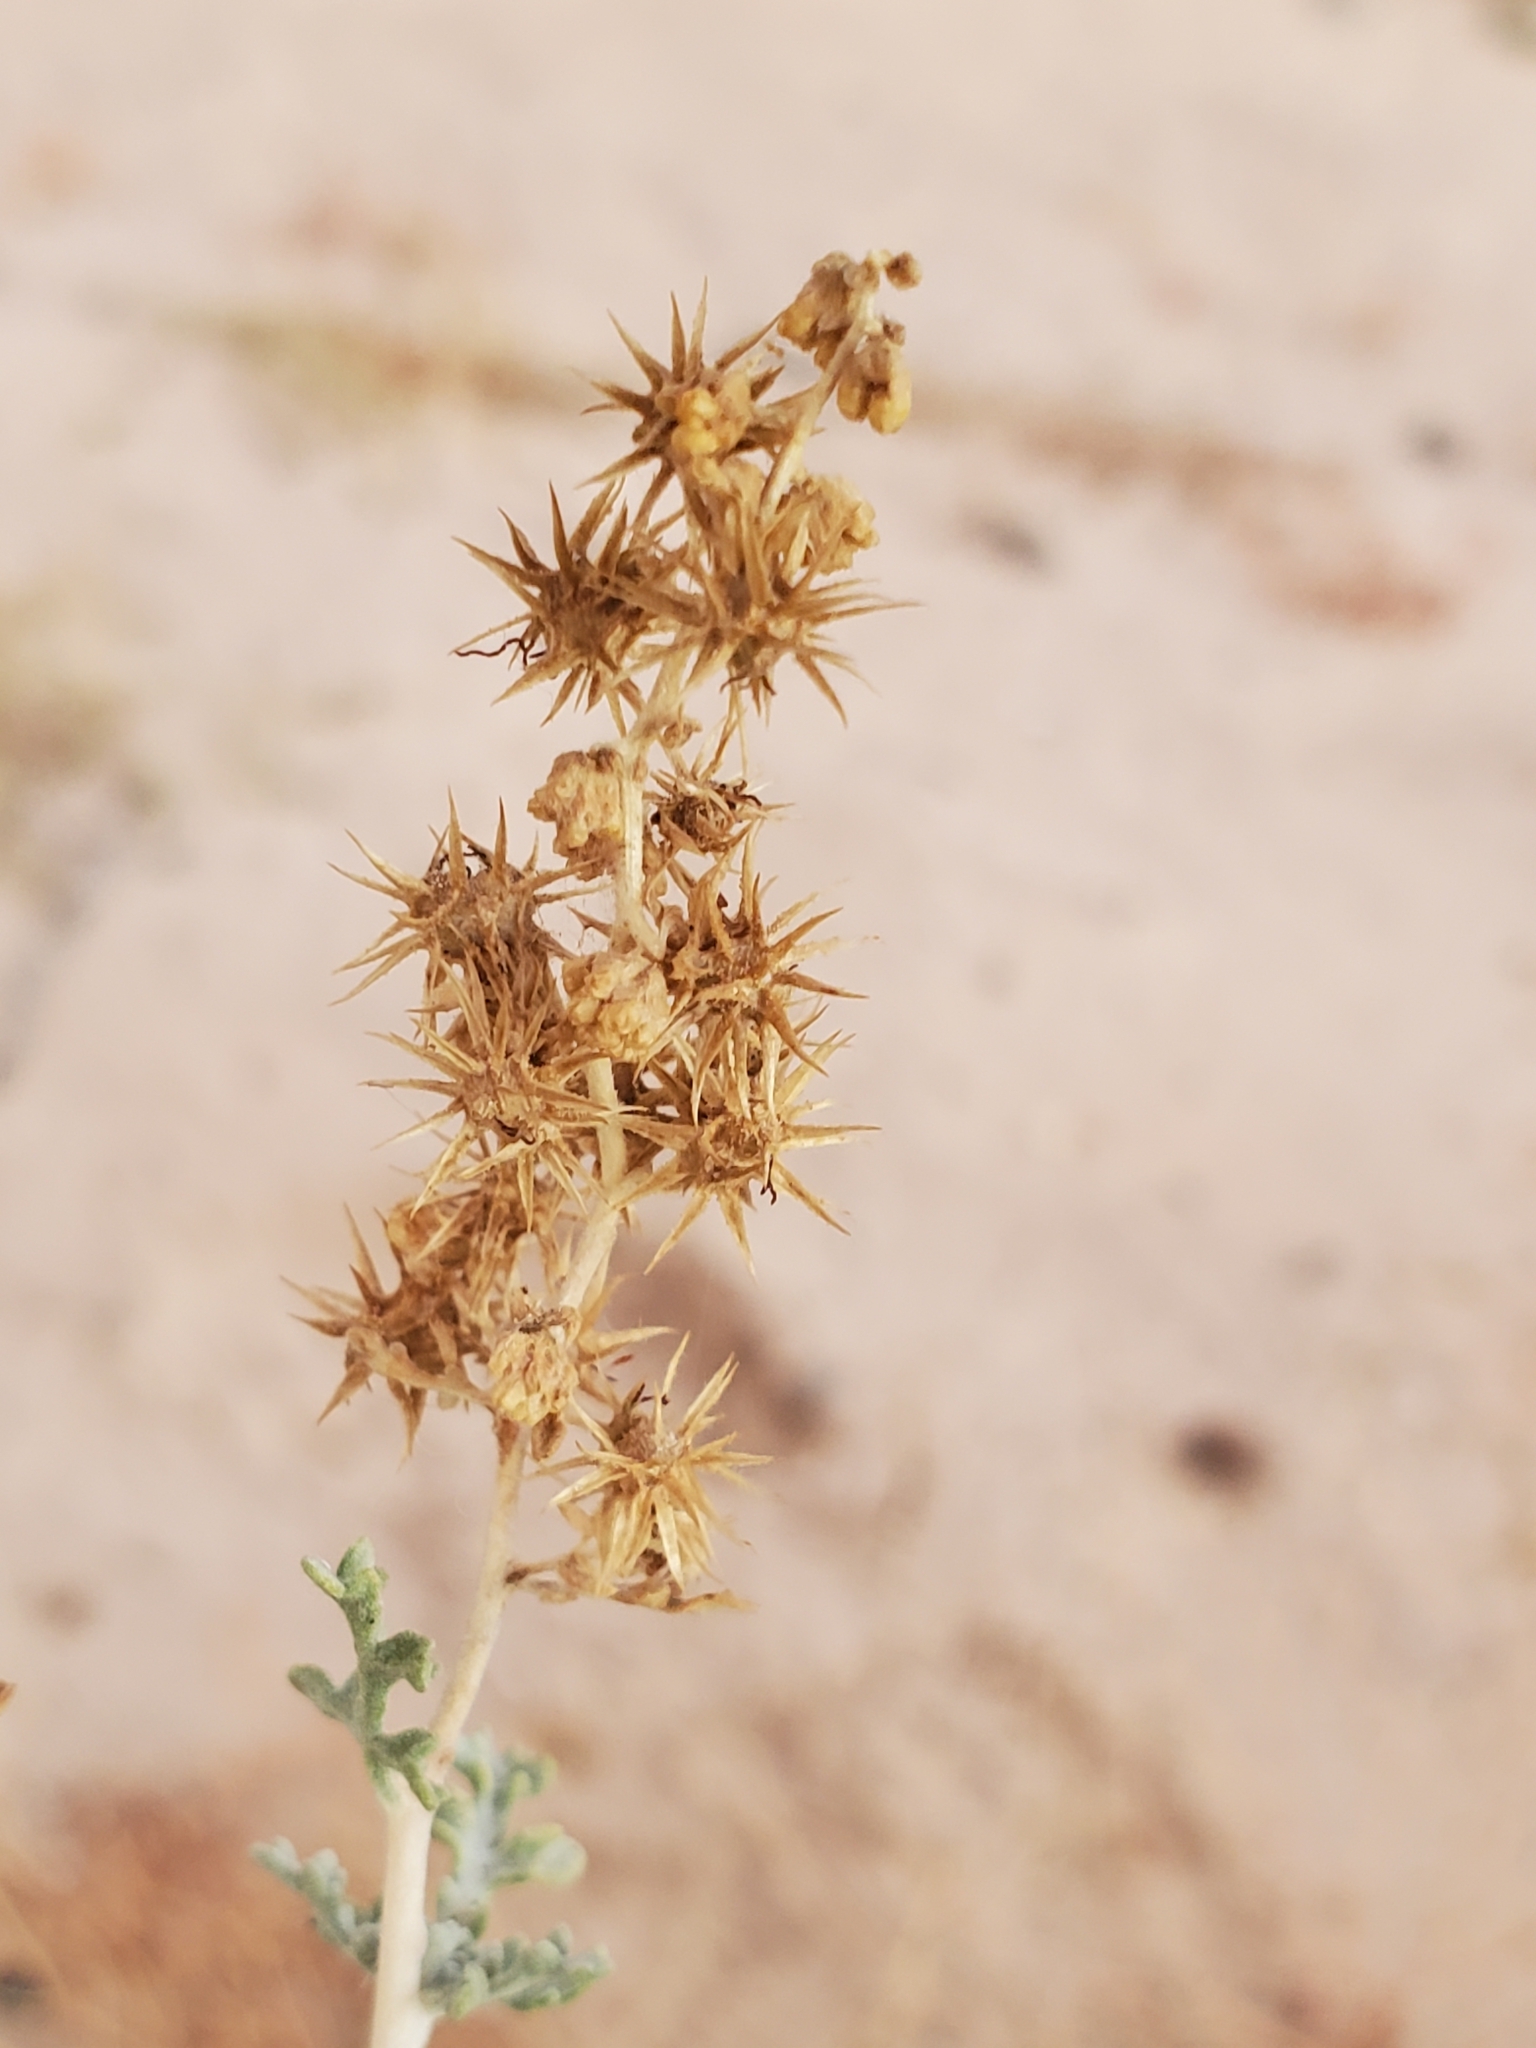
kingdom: Plantae
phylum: Tracheophyta
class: Magnoliopsida
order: Asterales
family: Asteraceae
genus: Ambrosia
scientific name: Ambrosia dumosa
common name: Bur-sage
